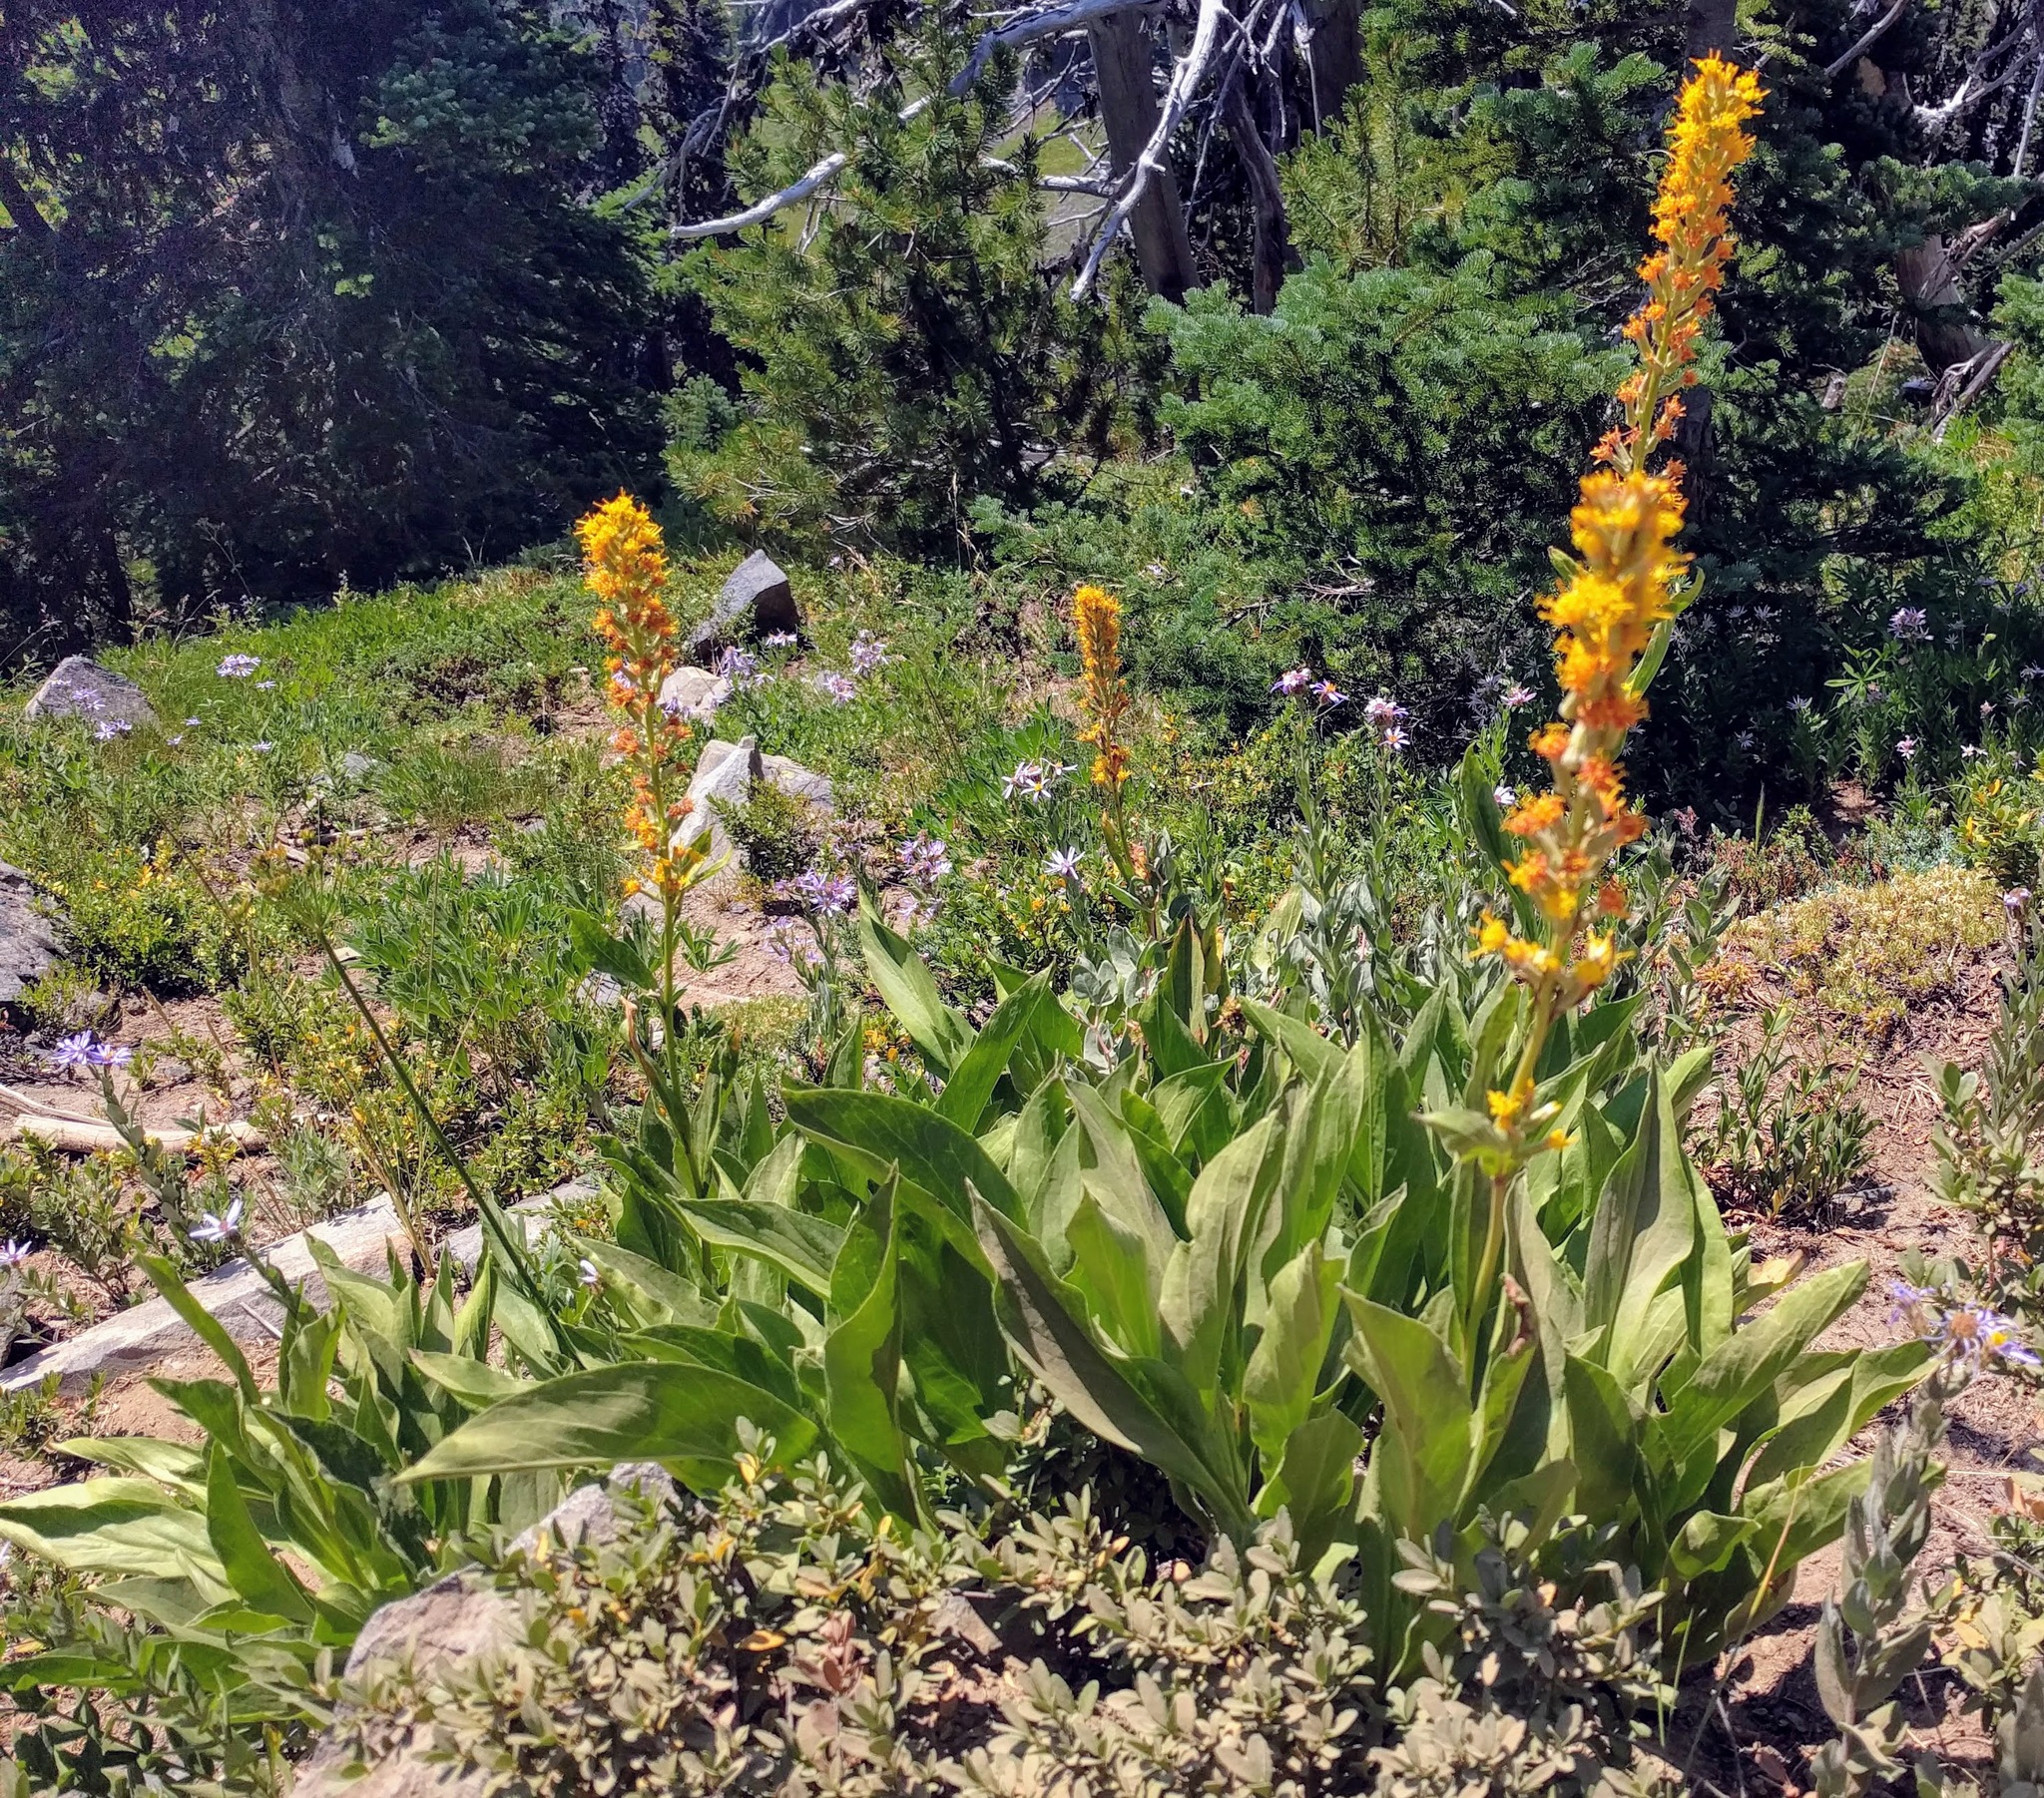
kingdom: Plantae
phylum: Tracheophyta
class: Magnoliopsida
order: Asterales
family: Asteraceae
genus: Rainiera
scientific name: Rainiera stricta
